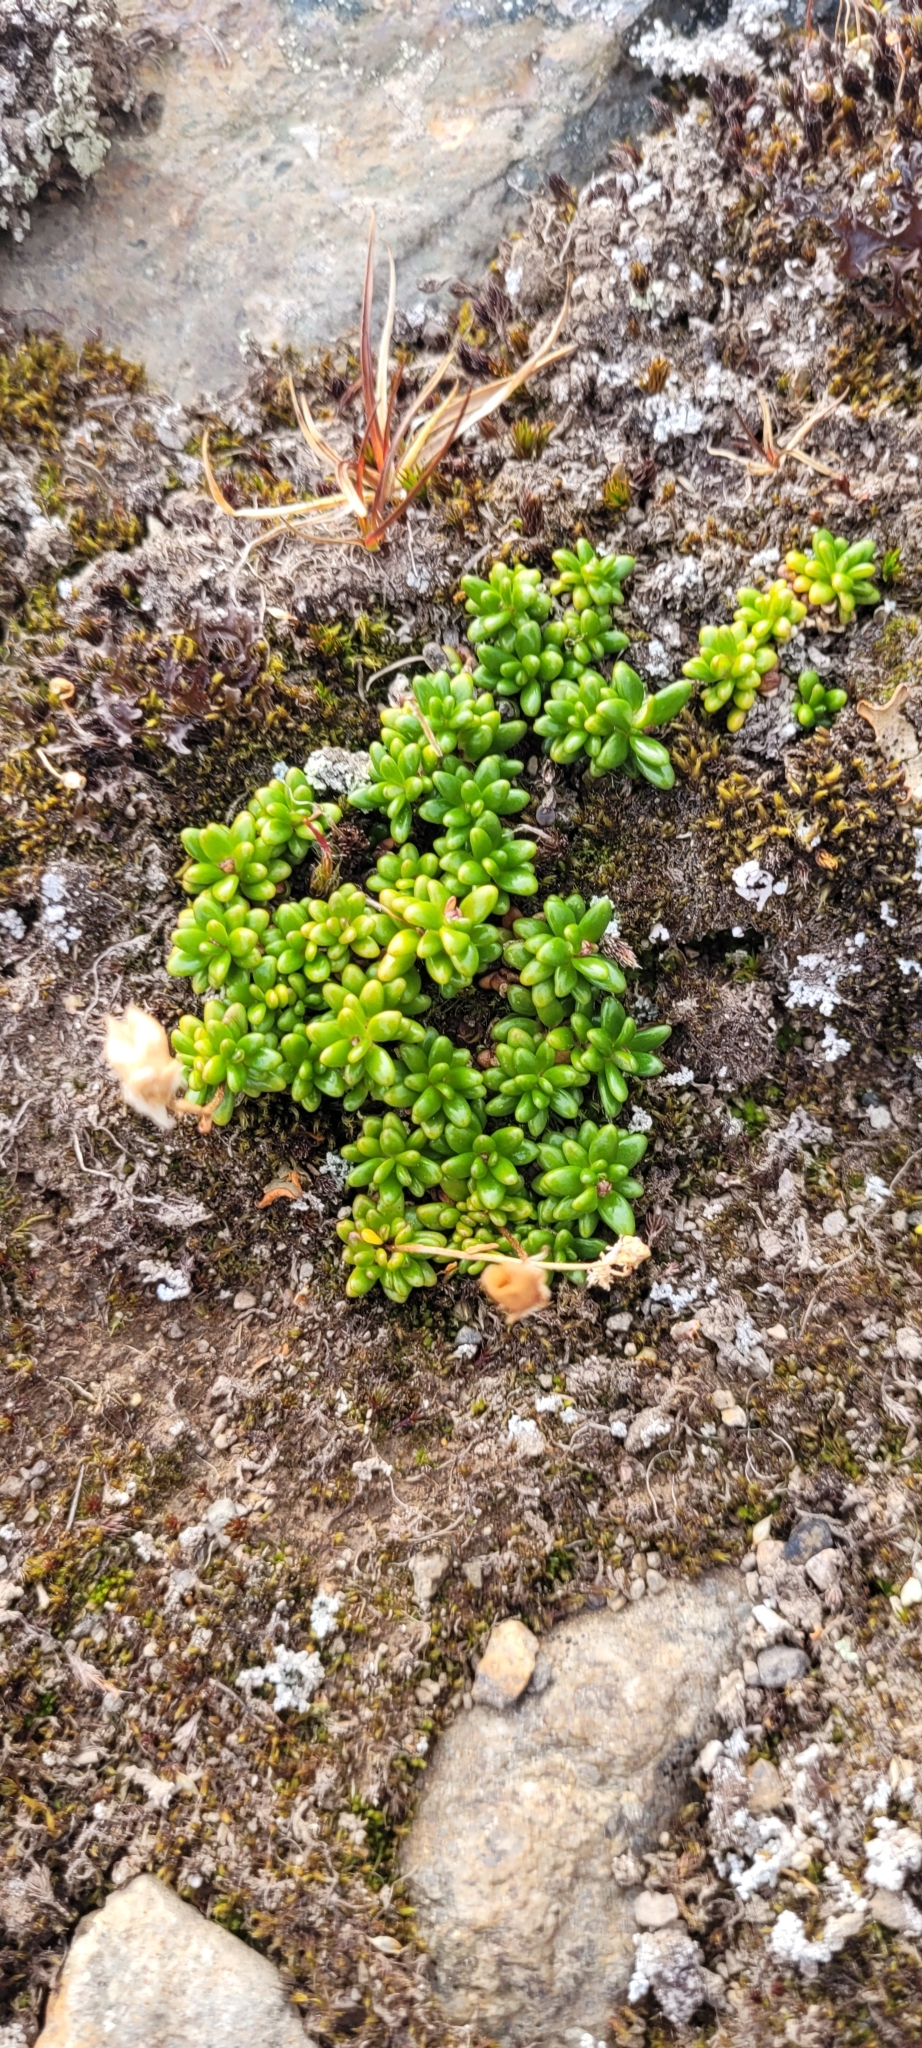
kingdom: Plantae
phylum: Tracheophyta
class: Magnoliopsida
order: Saxifragales
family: Saxifragaceae
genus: Micranthes
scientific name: Micranthes tolmiei
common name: Tolmie's saxifrage
